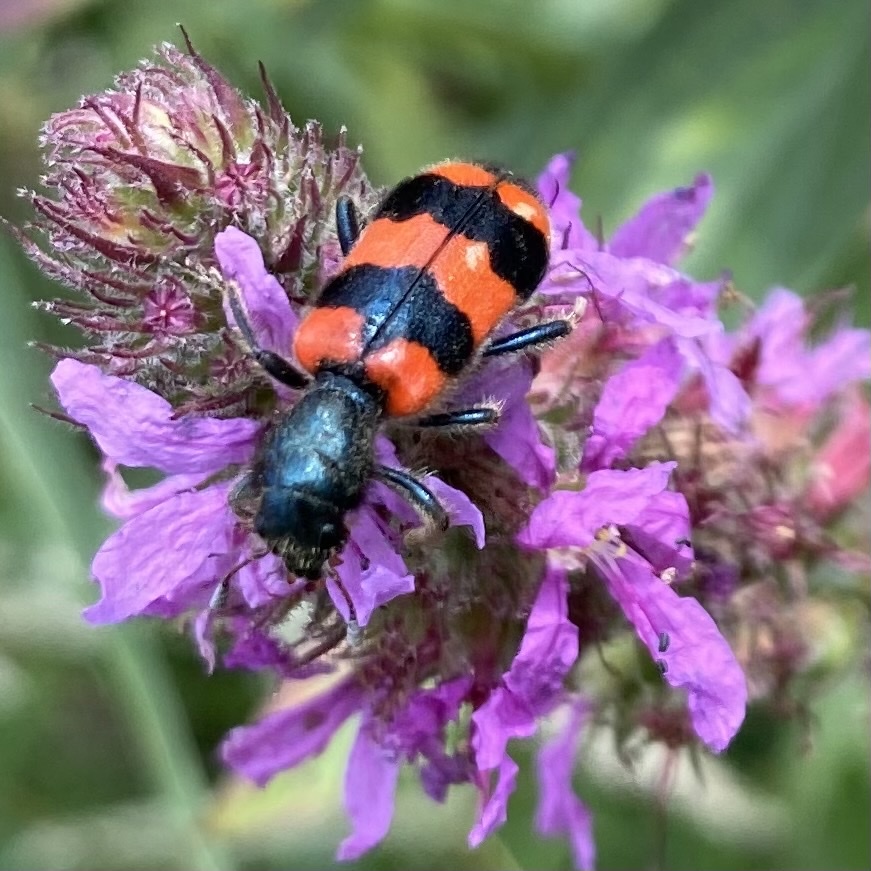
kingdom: Animalia
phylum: Arthropoda
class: Insecta
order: Coleoptera
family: Cleridae
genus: Trichodes
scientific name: Trichodes apiarius
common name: Bee-eating beetle
